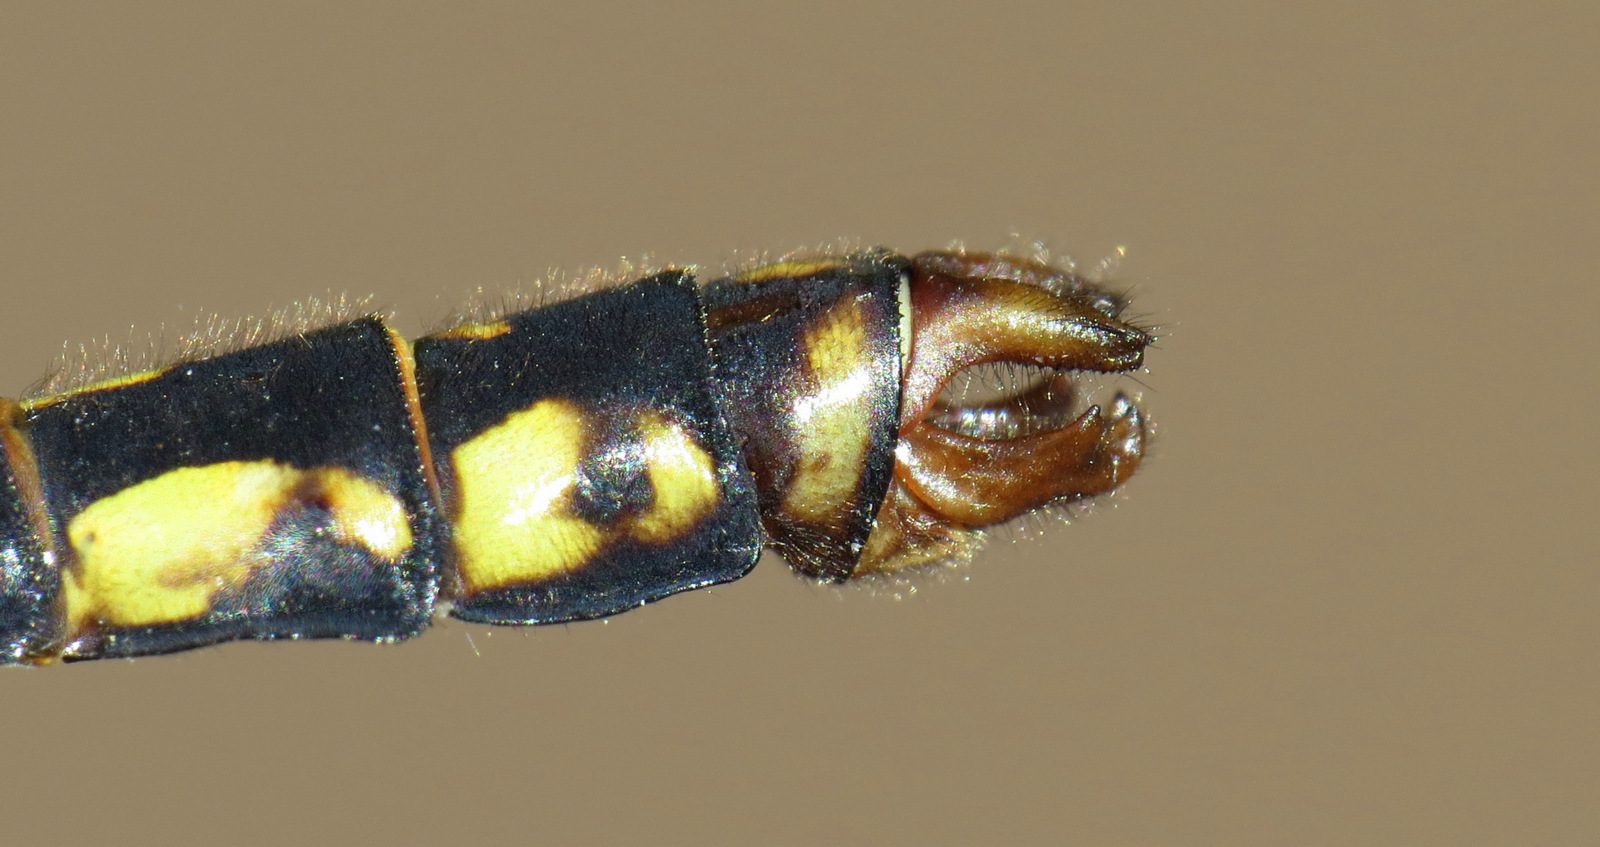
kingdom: Animalia
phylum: Arthropoda
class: Insecta
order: Odonata
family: Gomphidae
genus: Ophiogomphus
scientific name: Ophiogomphus mainensis
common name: Maine snaketail
